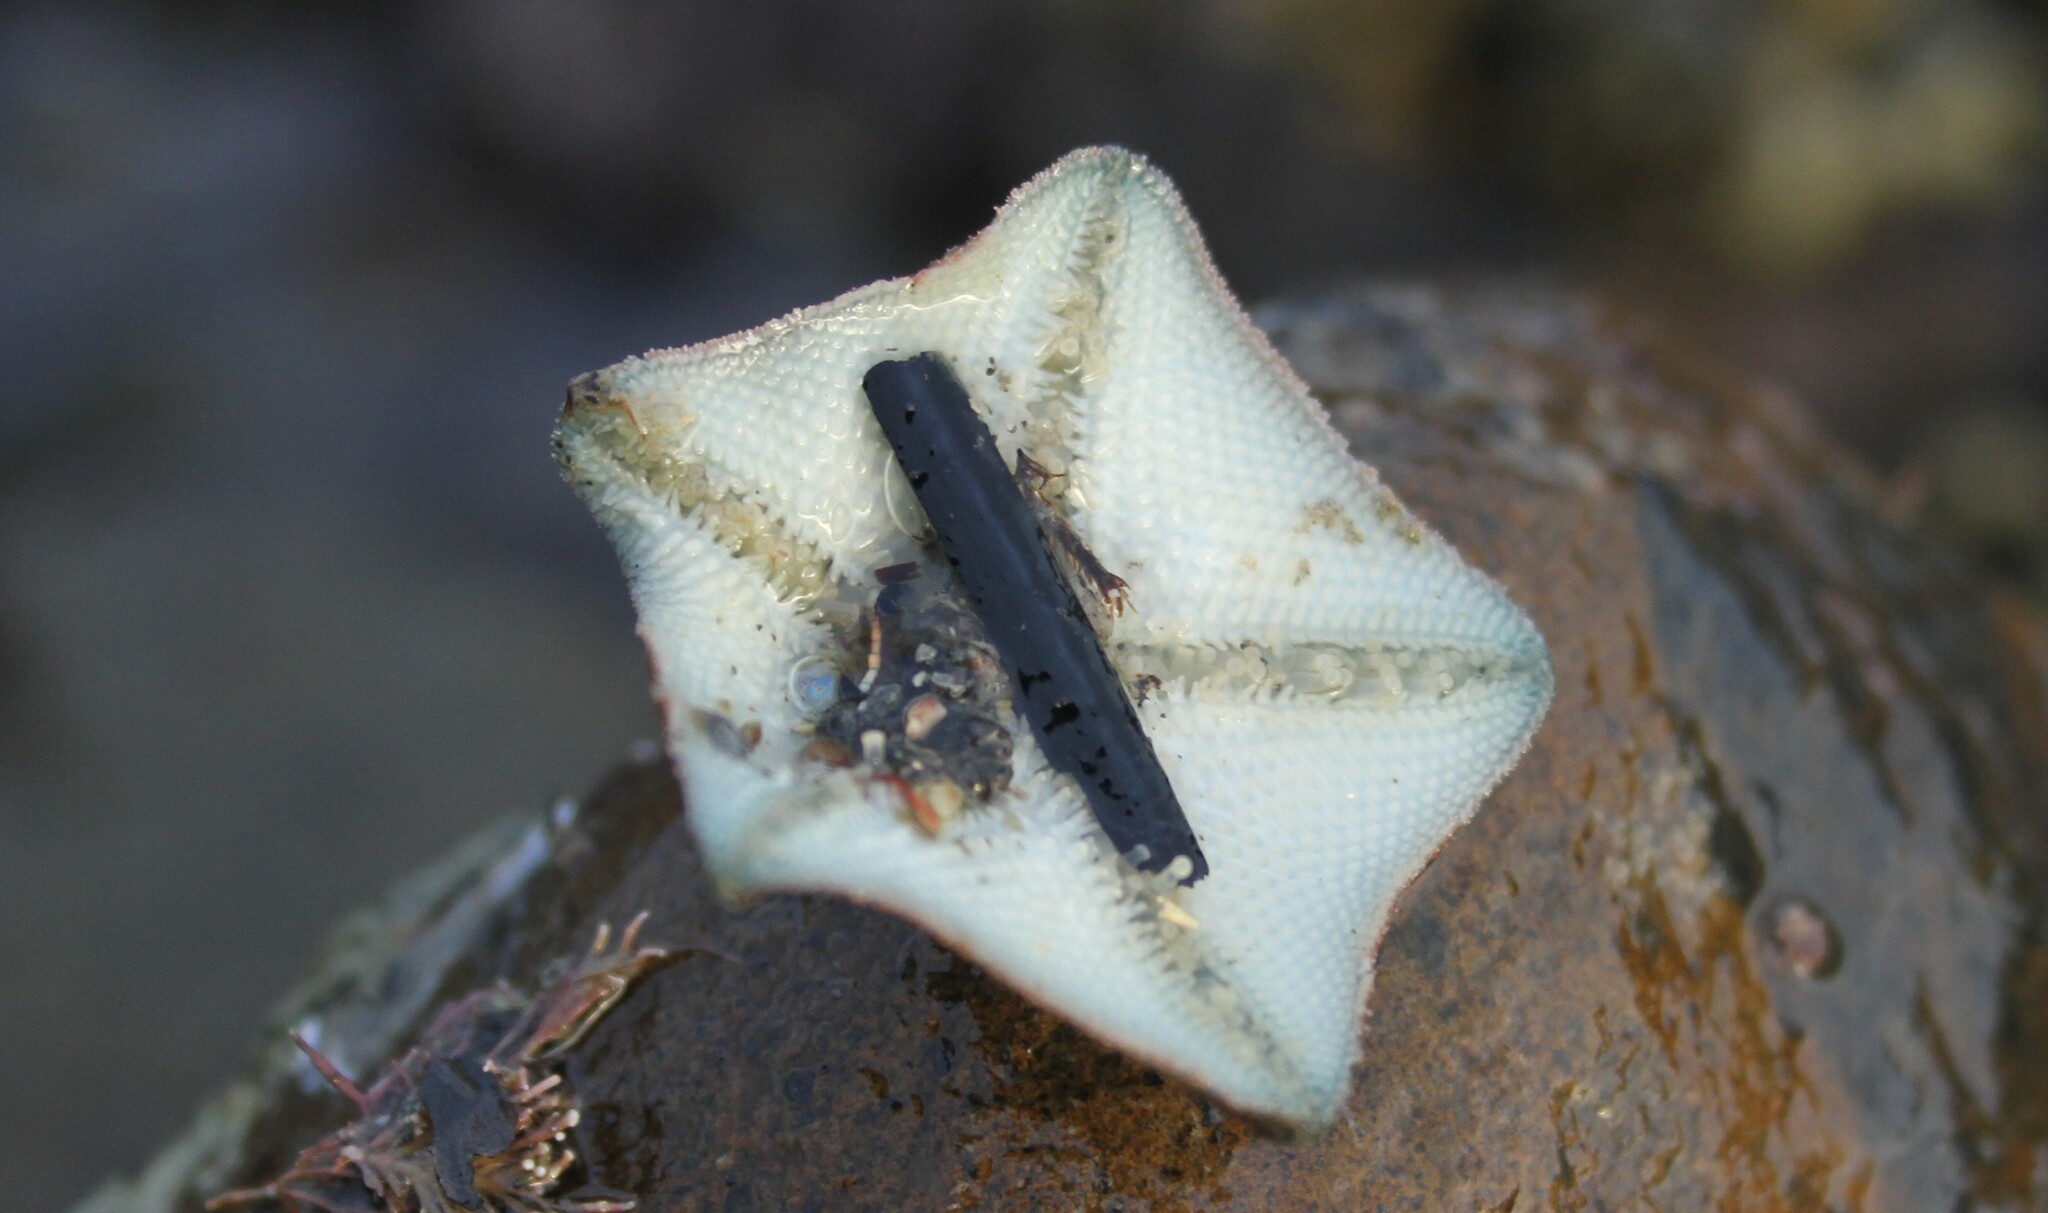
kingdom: Animalia
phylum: Echinodermata
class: Asteroidea
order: Valvatida
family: Asterinidae
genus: Patiriella
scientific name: Patiriella regularis
